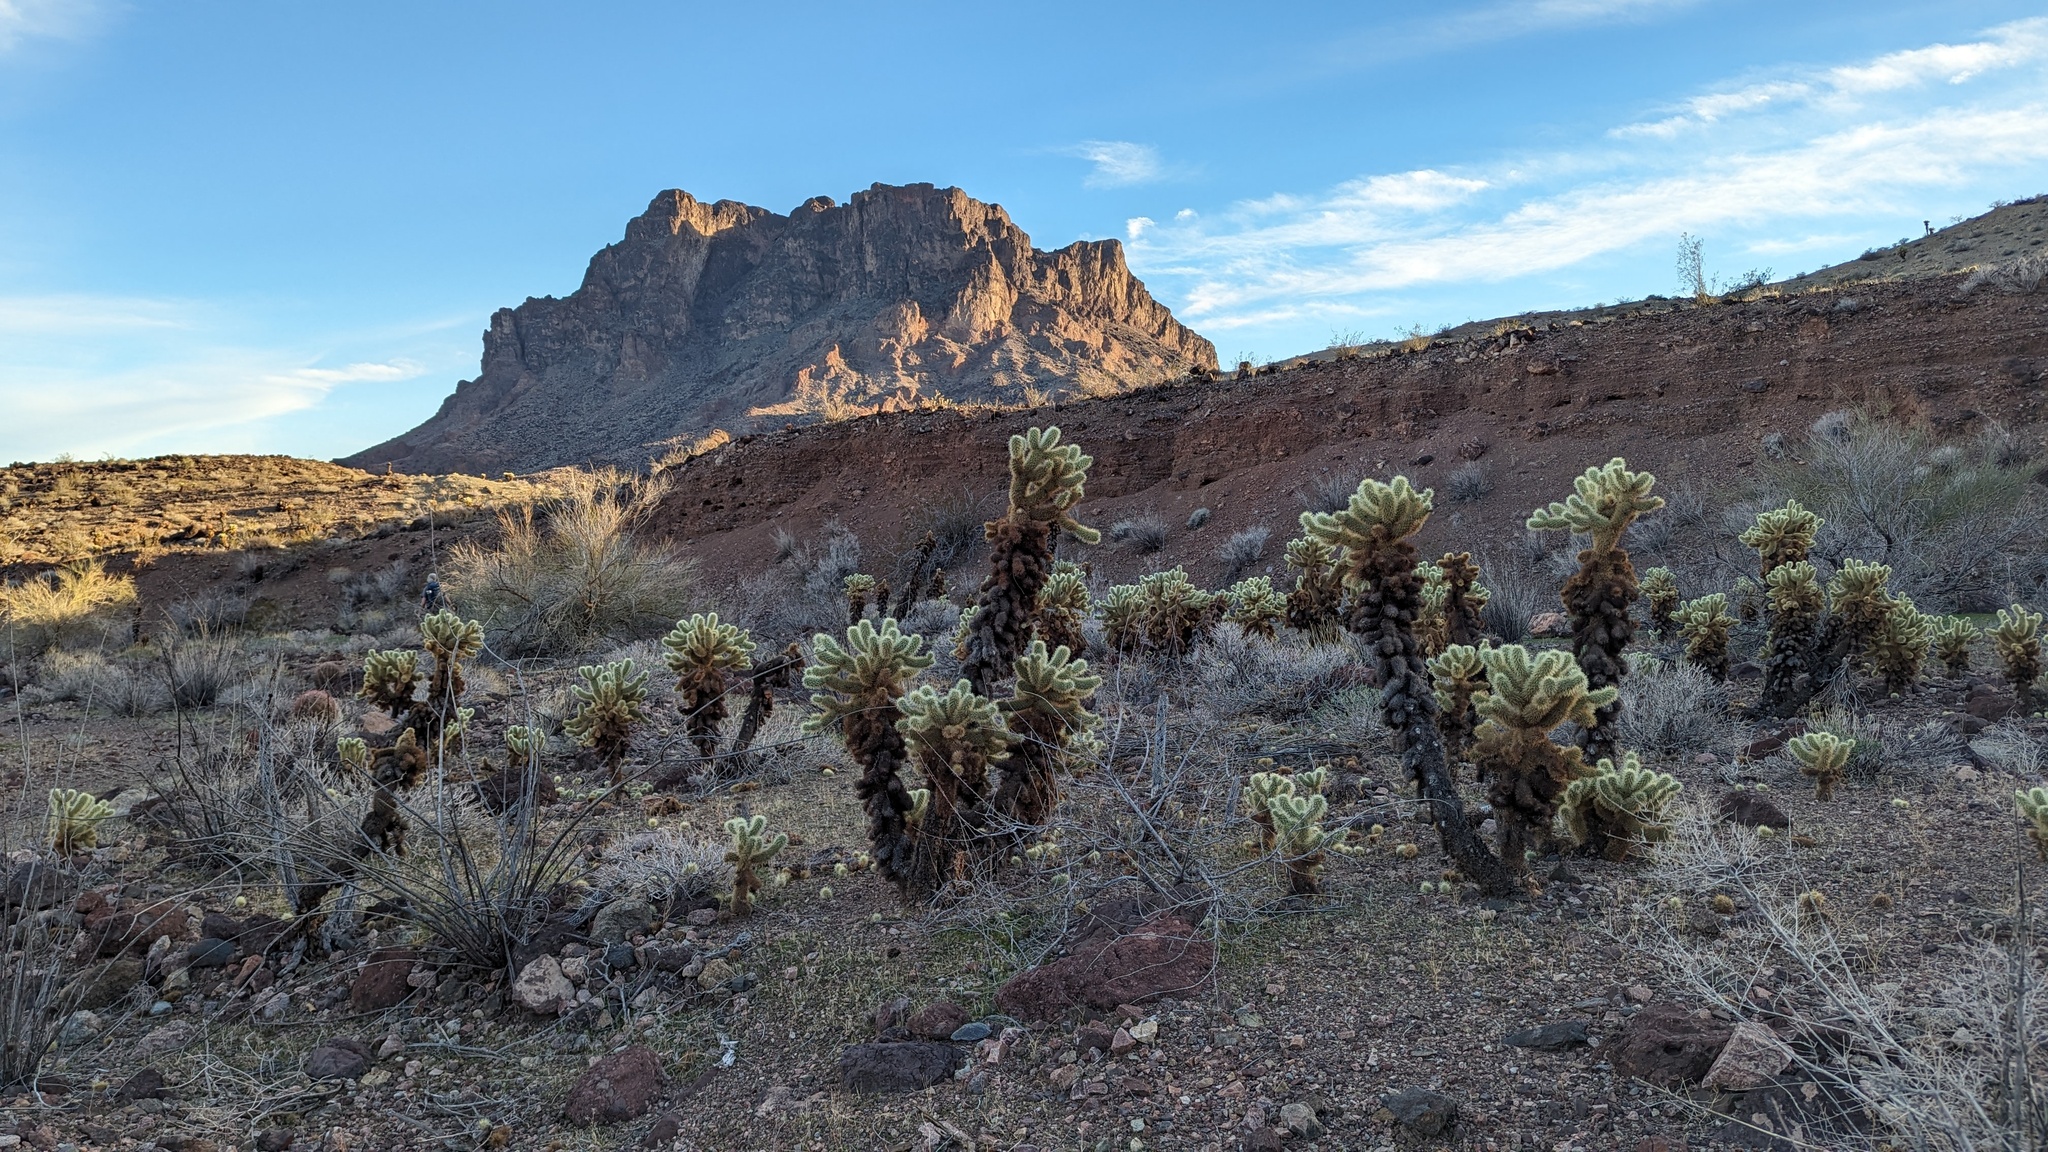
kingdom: Plantae
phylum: Tracheophyta
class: Magnoliopsida
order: Caryophyllales
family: Cactaceae
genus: Cylindropuntia
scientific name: Cylindropuntia fosbergii
